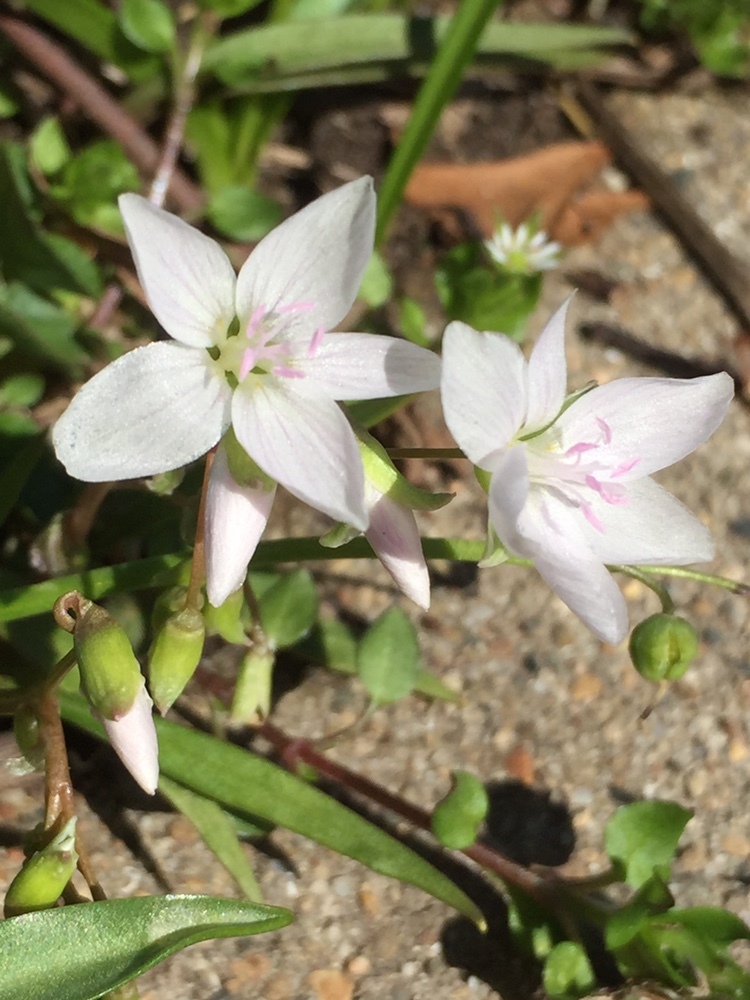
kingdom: Plantae
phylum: Tracheophyta
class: Magnoliopsida
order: Caryophyllales
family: Montiaceae
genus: Claytonia
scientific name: Claytonia virginica
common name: Virginia springbeauty
